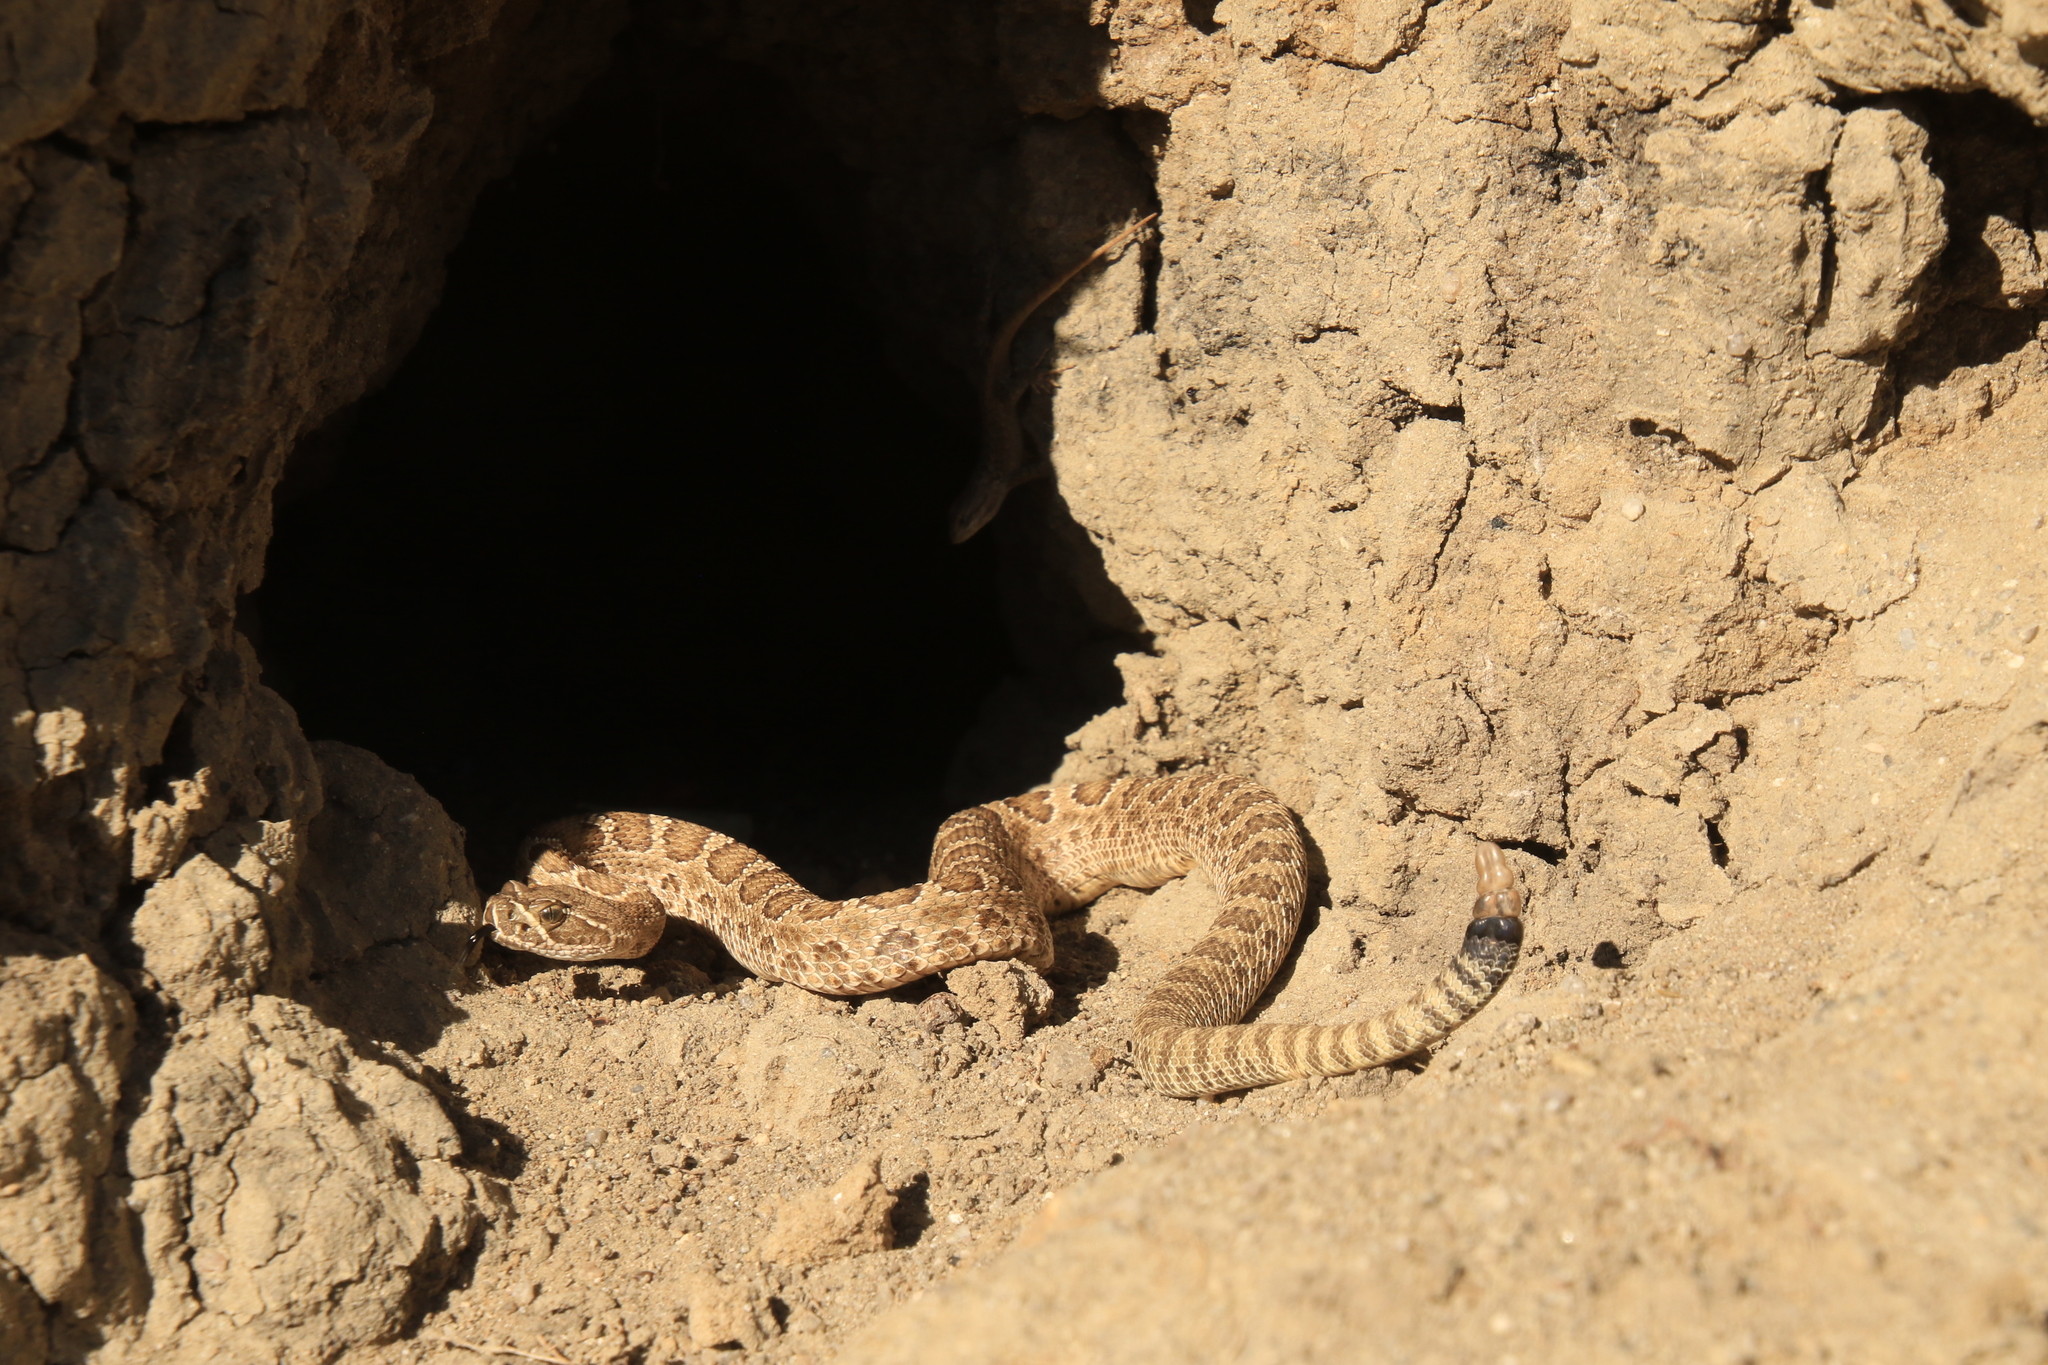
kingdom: Animalia
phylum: Chordata
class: Squamata
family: Viperidae
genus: Crotalus
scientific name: Crotalus viridis
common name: Prairie rattlesnake
